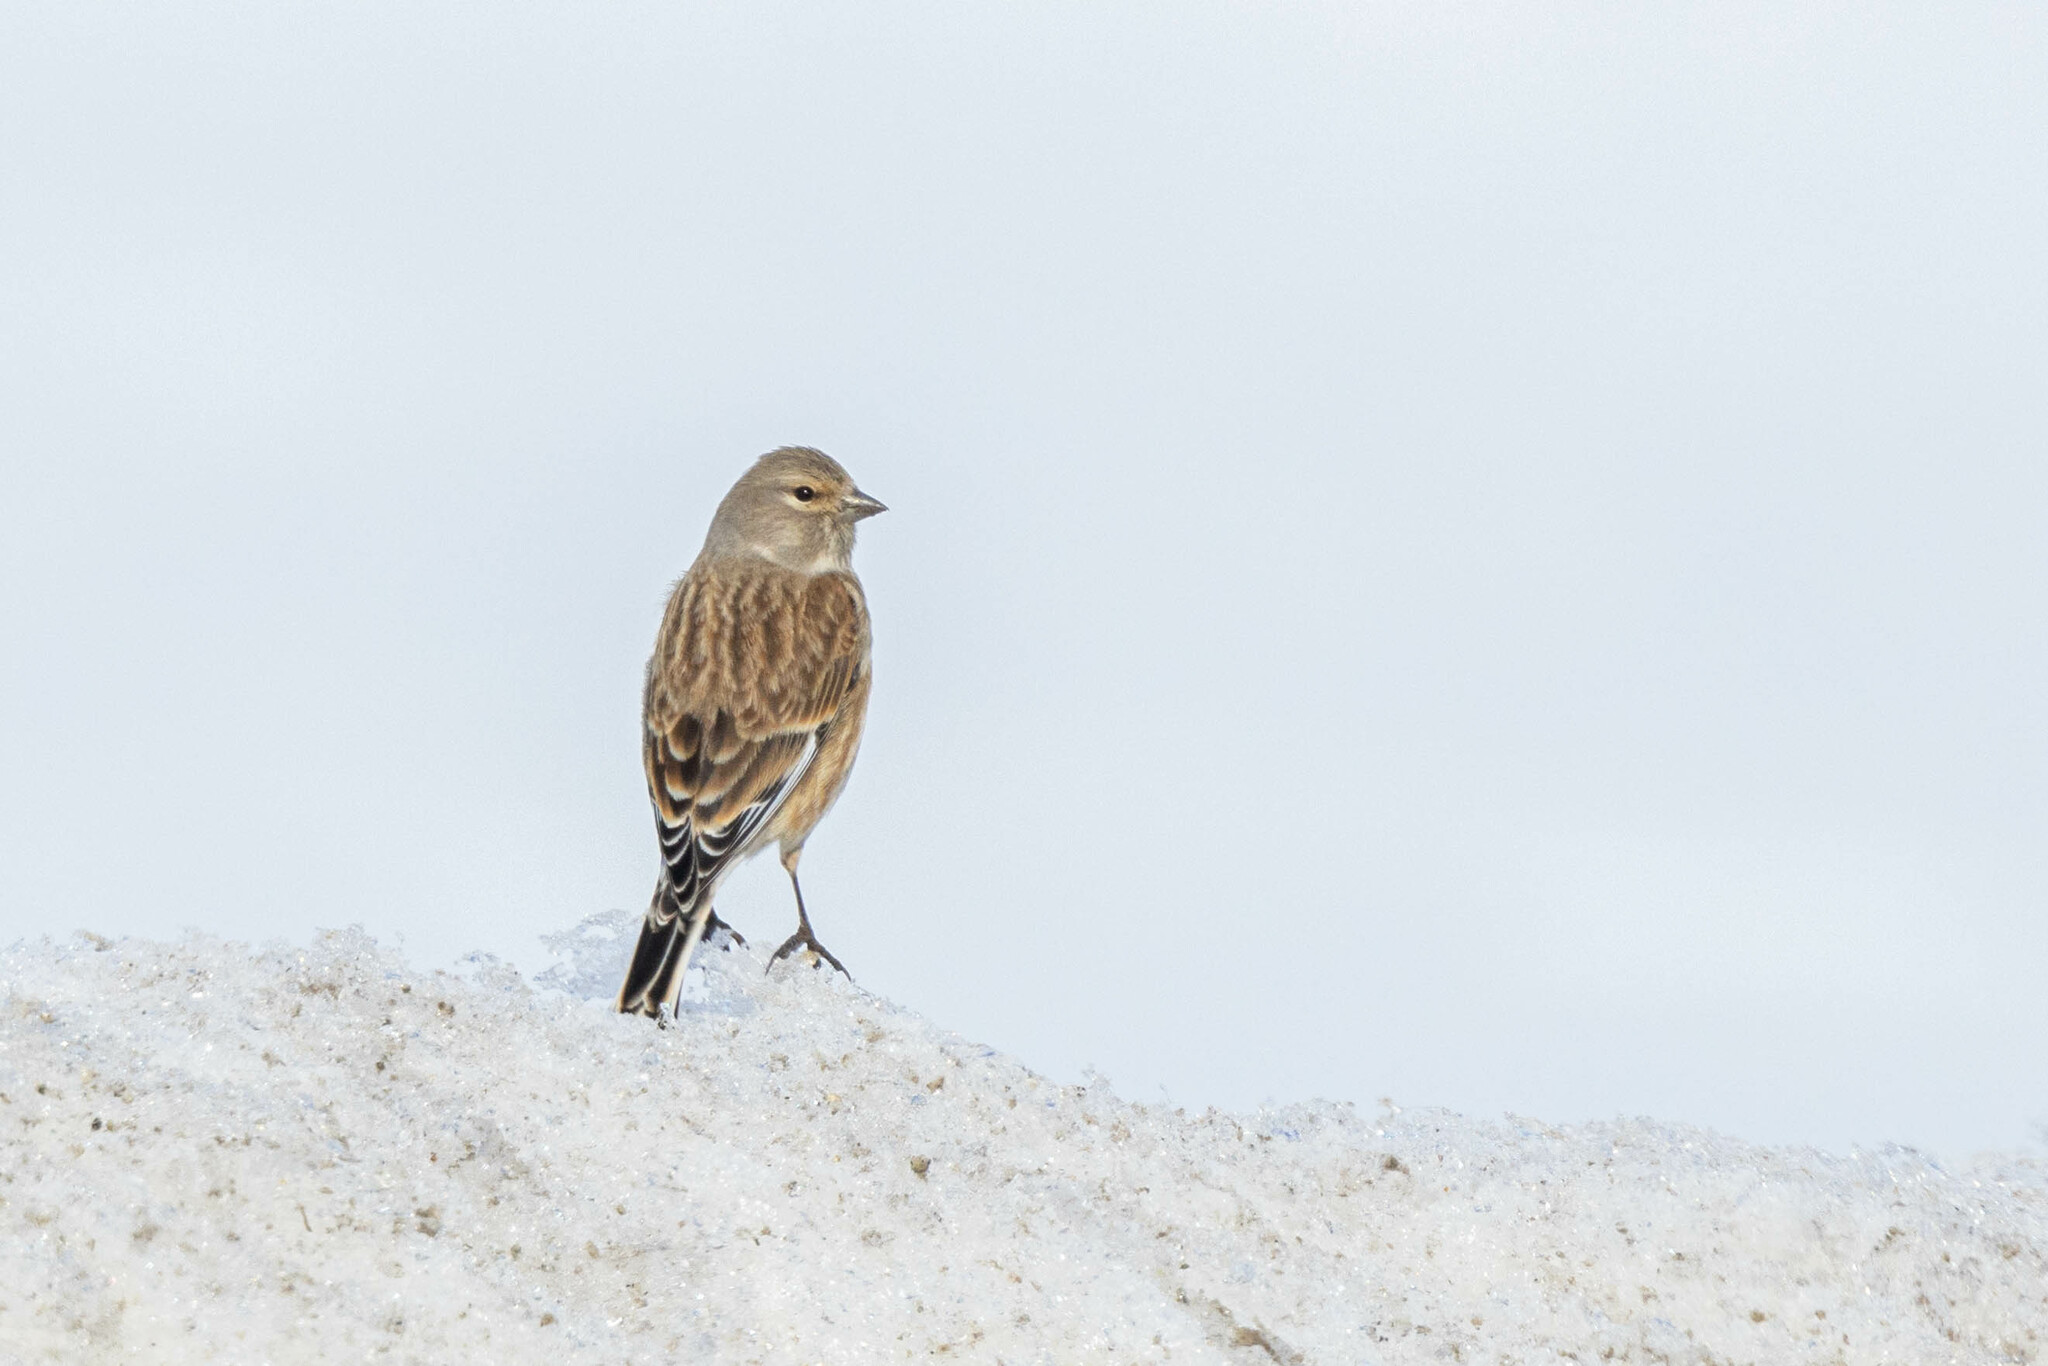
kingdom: Animalia
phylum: Chordata
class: Aves
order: Passeriformes
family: Fringillidae
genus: Linaria
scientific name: Linaria cannabina
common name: Common linnet
